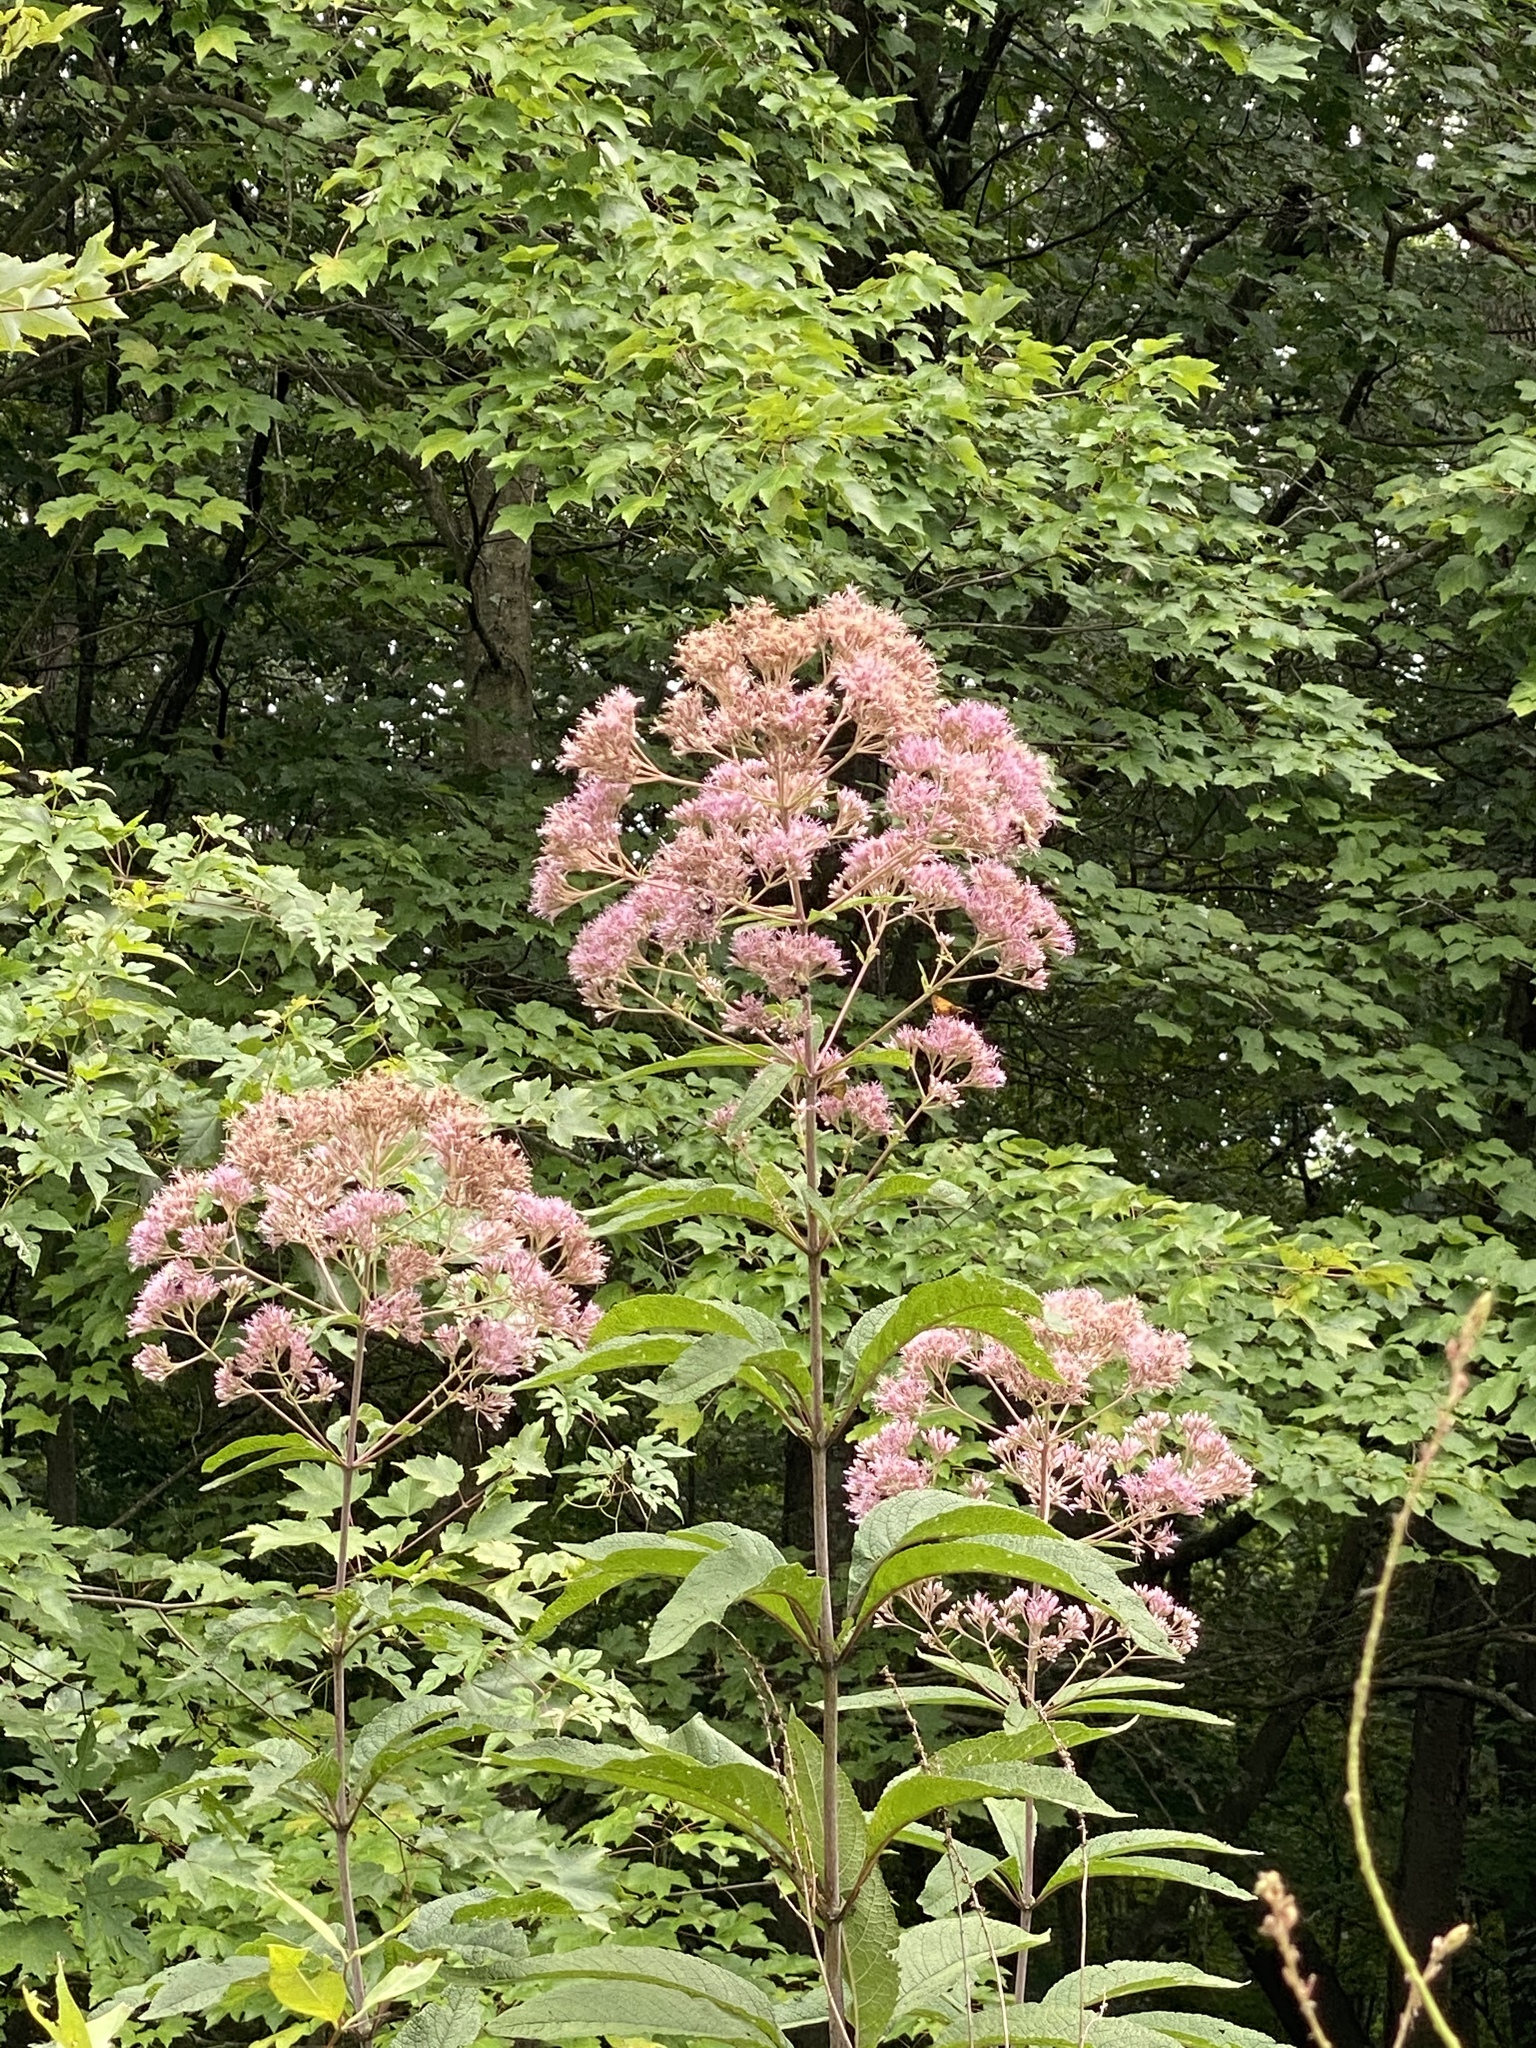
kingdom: Plantae
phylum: Tracheophyta
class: Magnoliopsida
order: Asterales
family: Asteraceae
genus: Eutrochium
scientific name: Eutrochium fistulosum
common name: Trumpetweed
